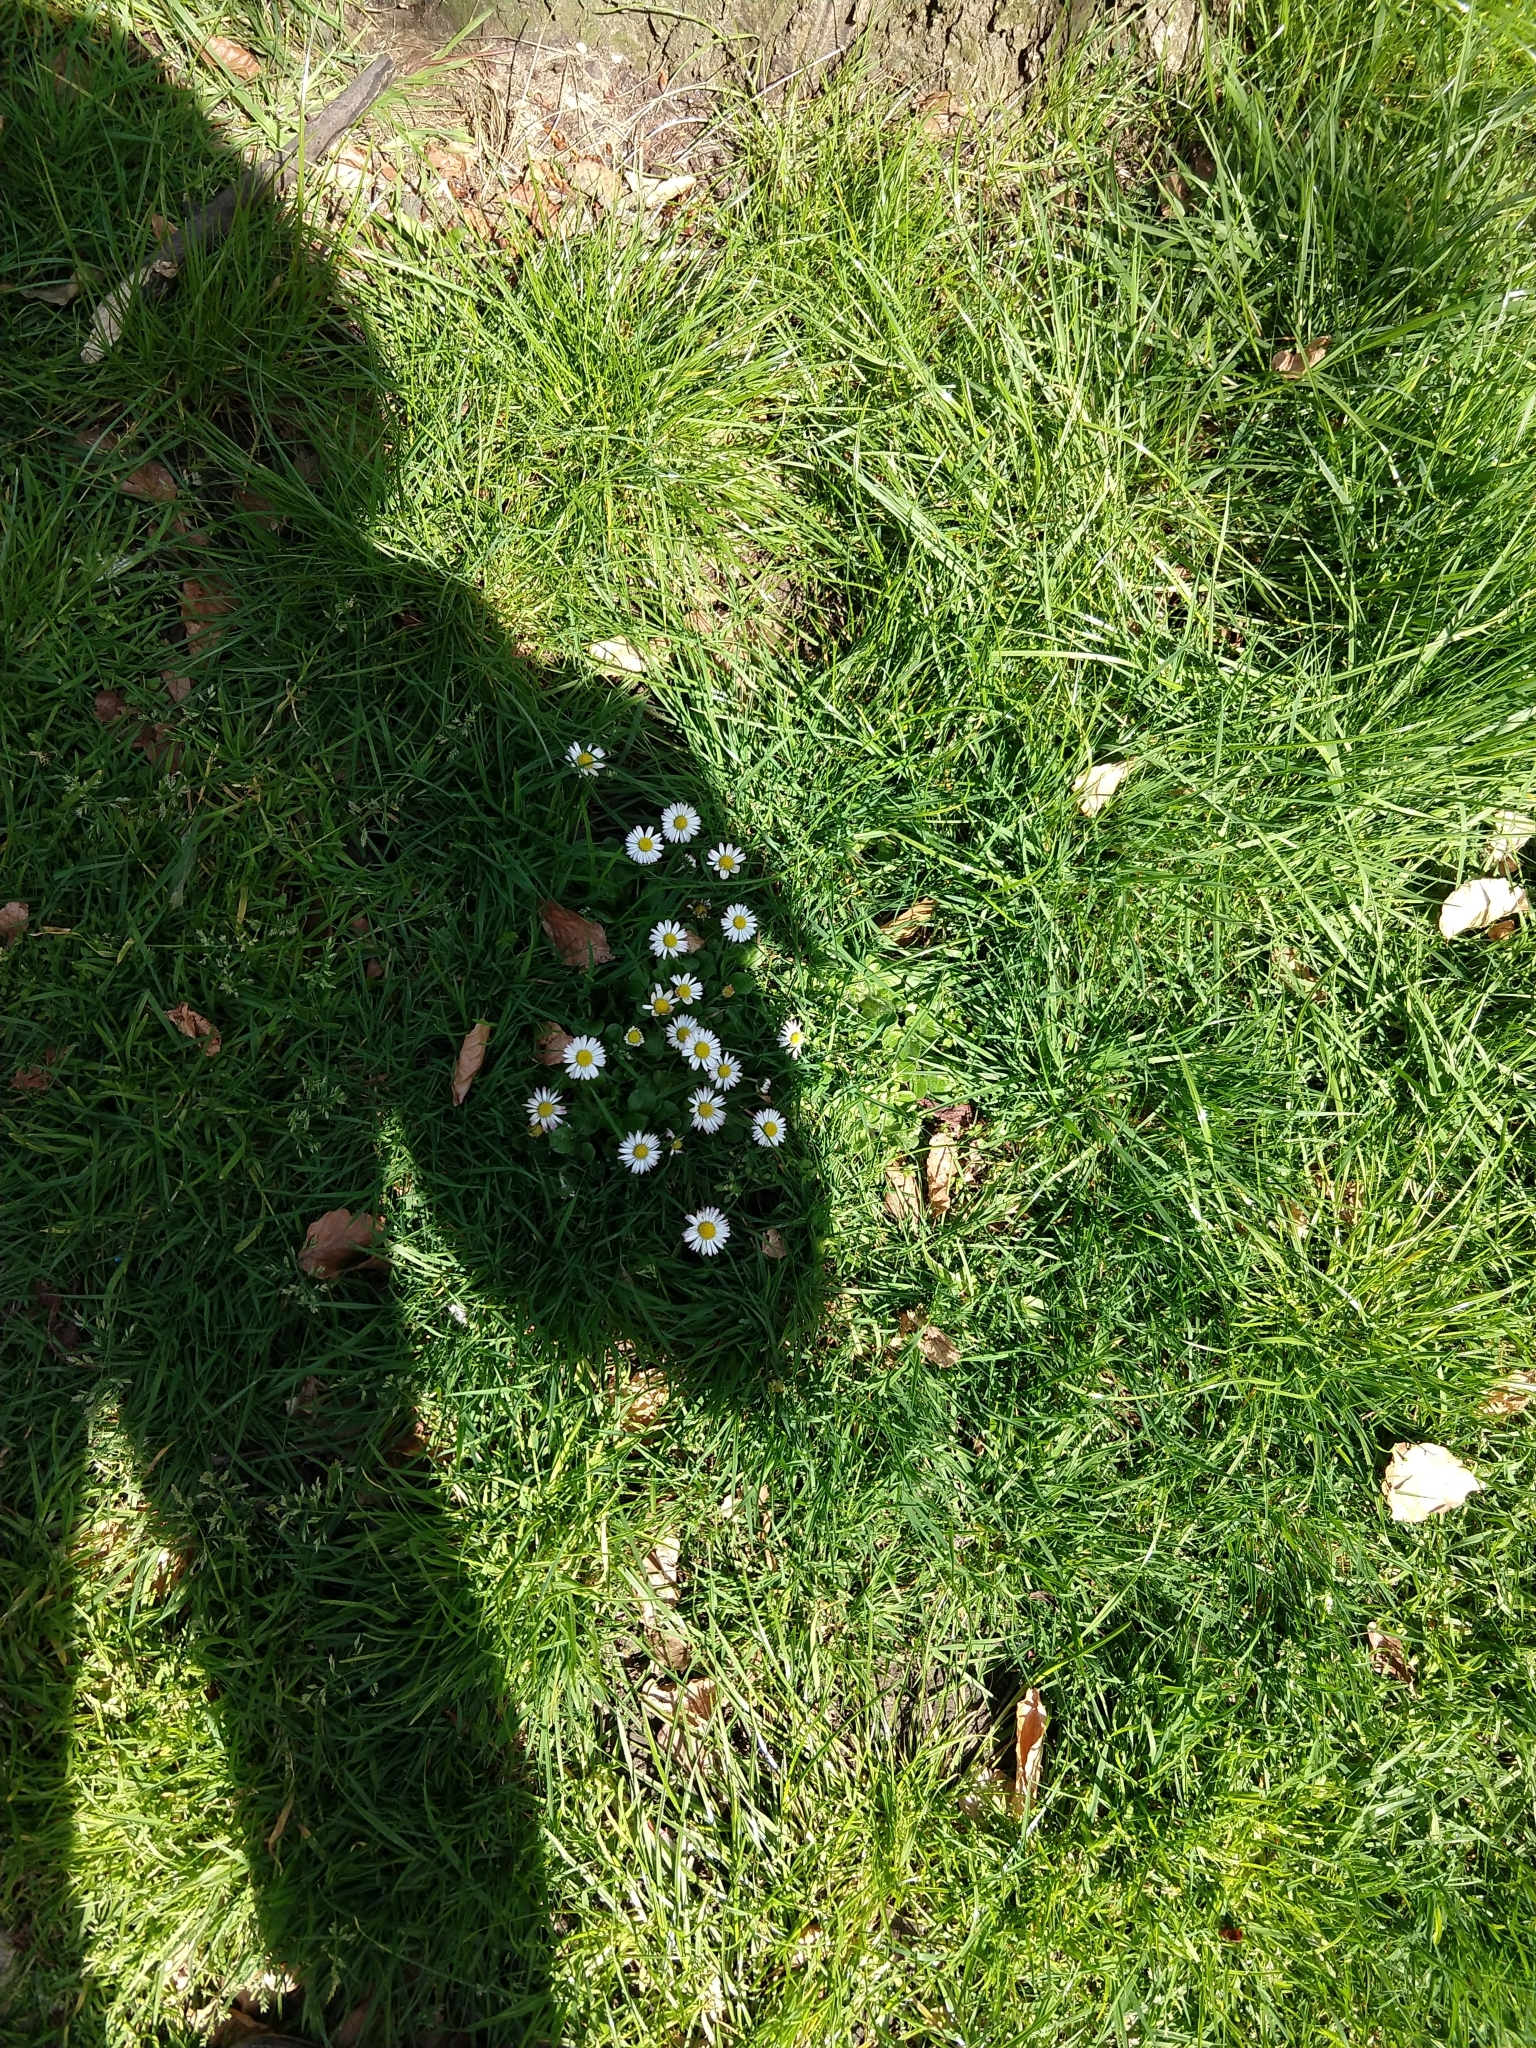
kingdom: Plantae
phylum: Tracheophyta
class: Magnoliopsida
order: Asterales
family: Asteraceae
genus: Bellis
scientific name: Bellis perennis
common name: Lawndaisy
